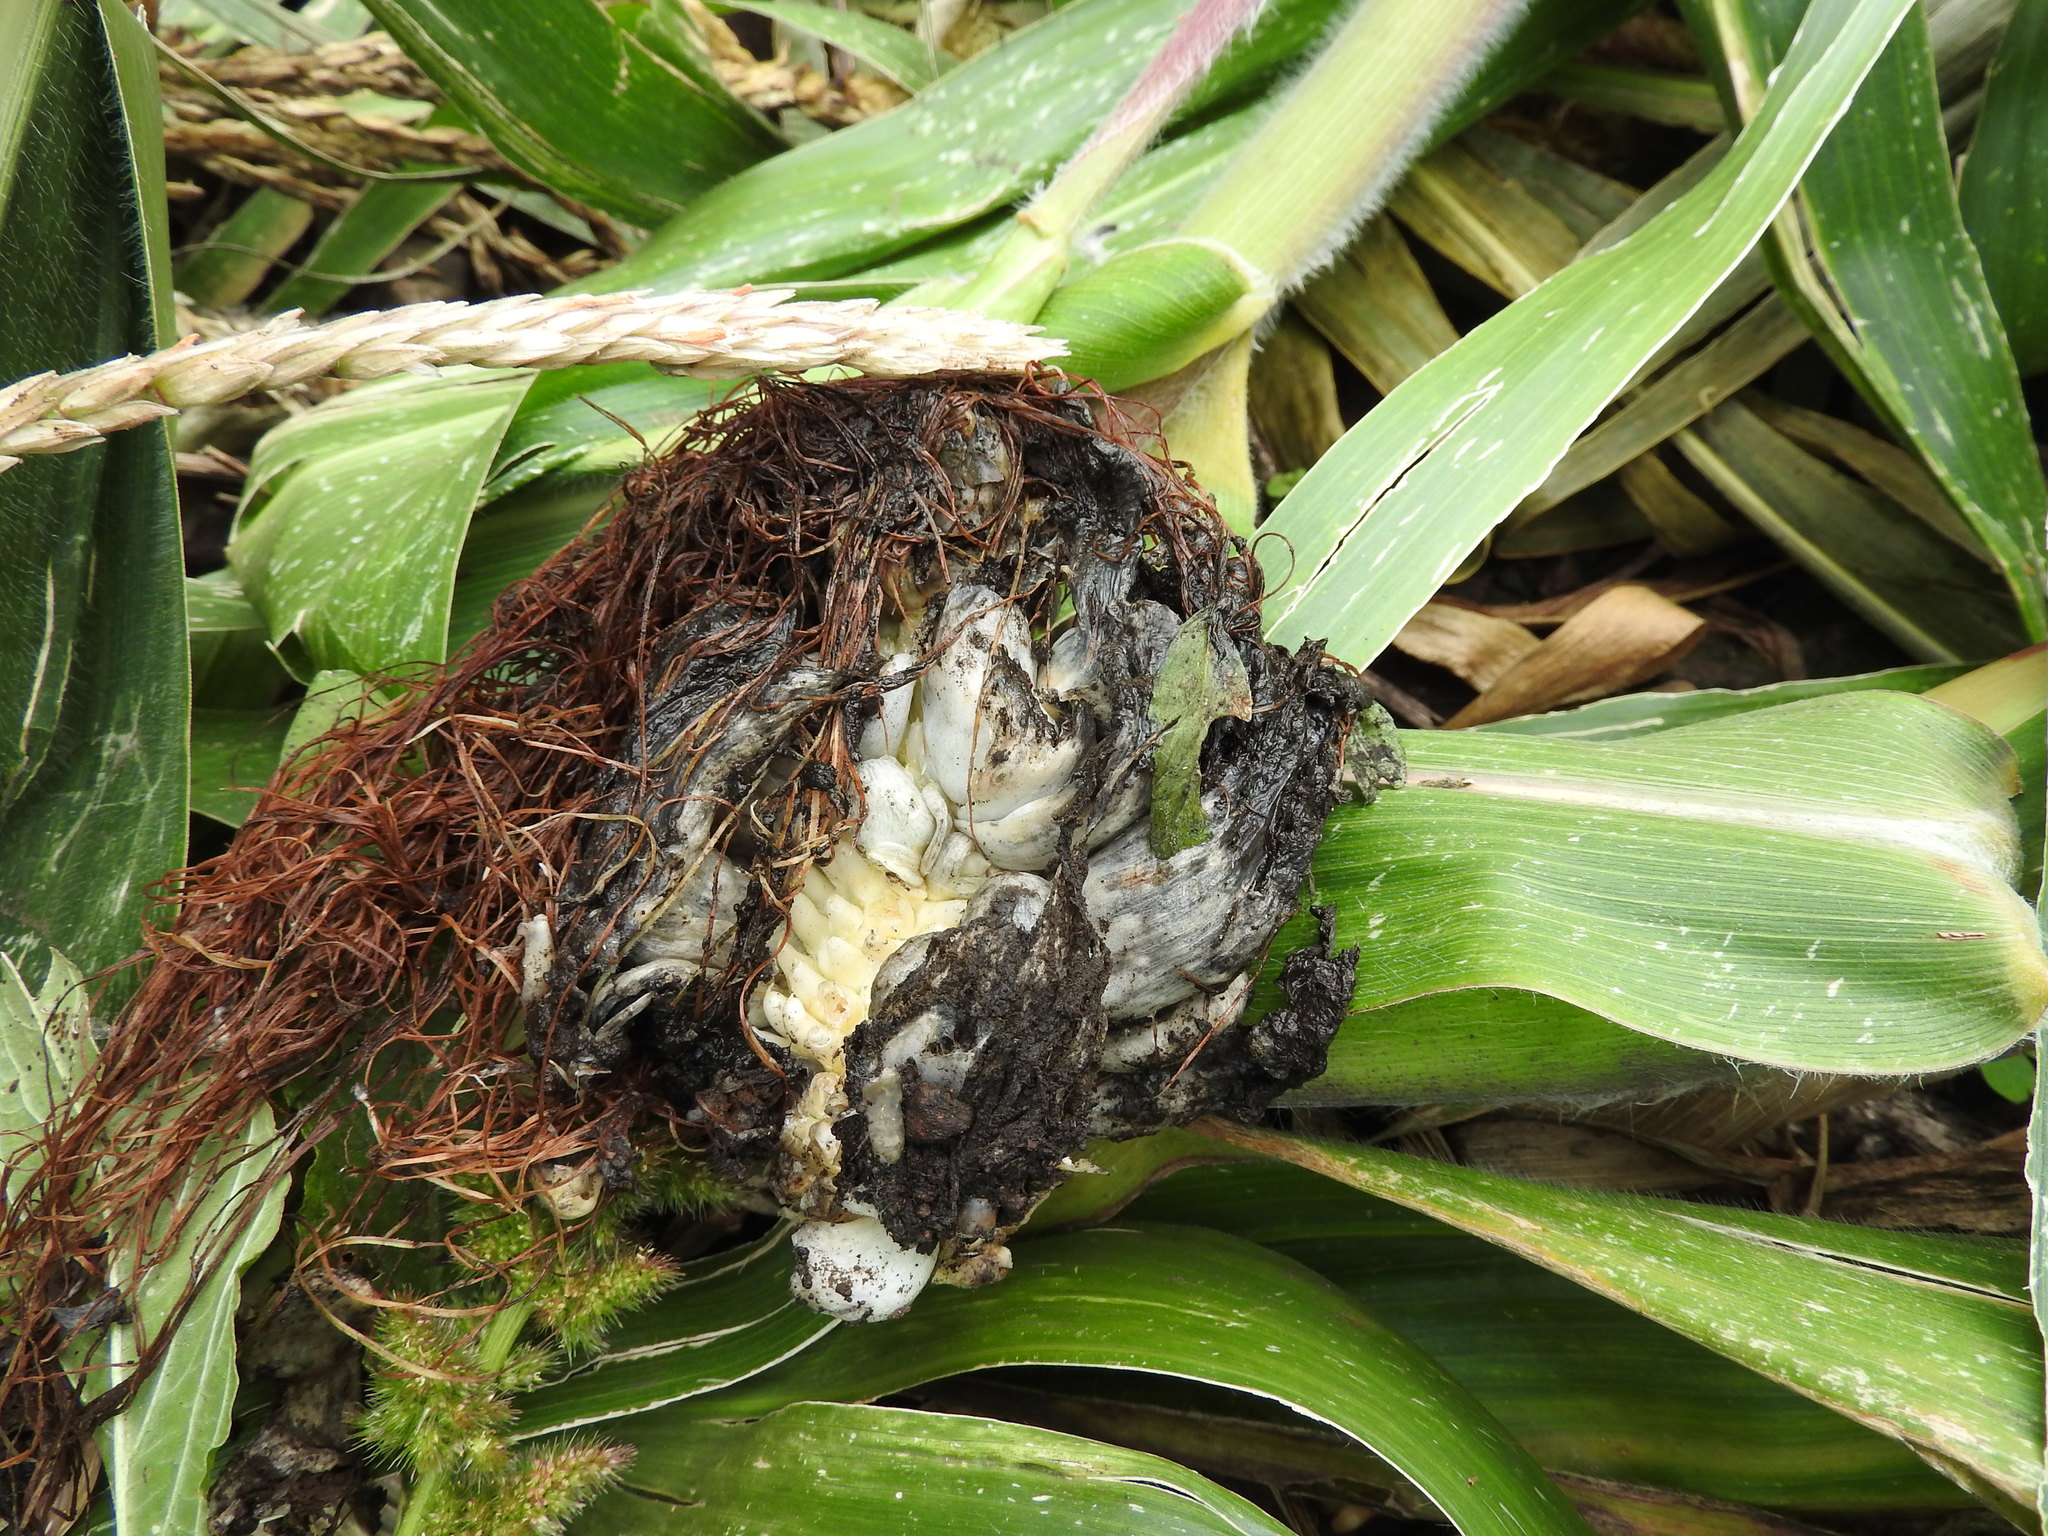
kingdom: Fungi
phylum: Basidiomycota
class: Ustilaginomycetes
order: Ustilaginales
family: Ustilaginaceae
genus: Mycosarcoma
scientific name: Mycosarcoma maydis
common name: Corn smut
